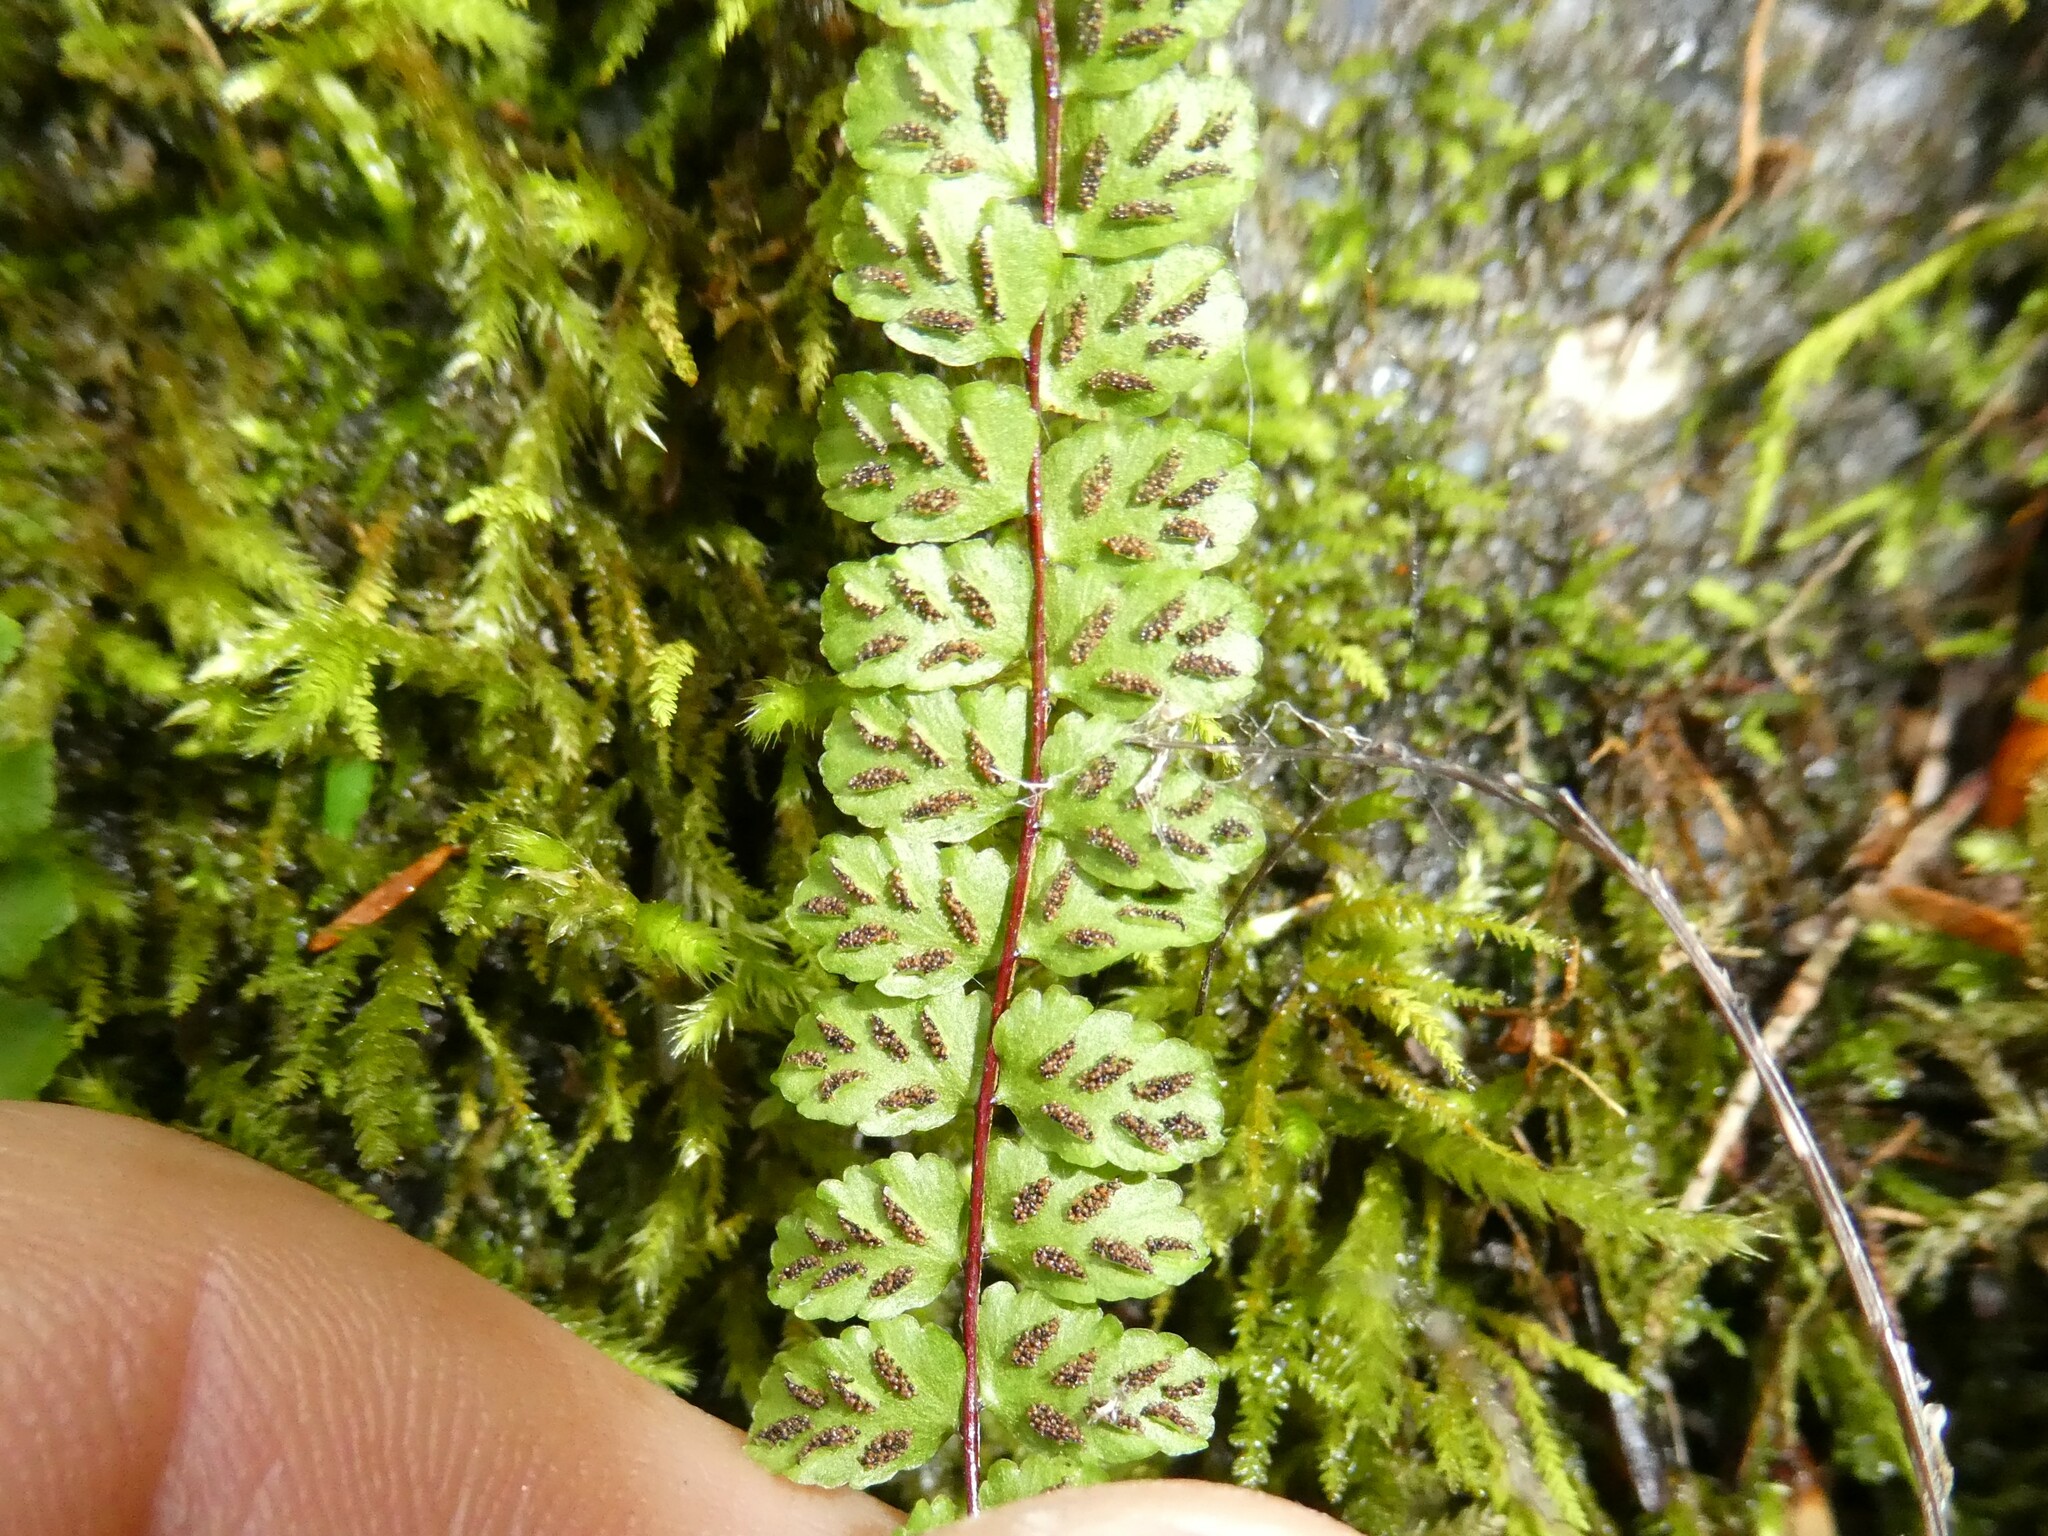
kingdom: Plantae
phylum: Tracheophyta
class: Polypodiopsida
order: Polypodiales
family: Aspleniaceae
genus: Asplenium
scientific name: Asplenium trichomanes
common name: Maidenhair spleenwort
